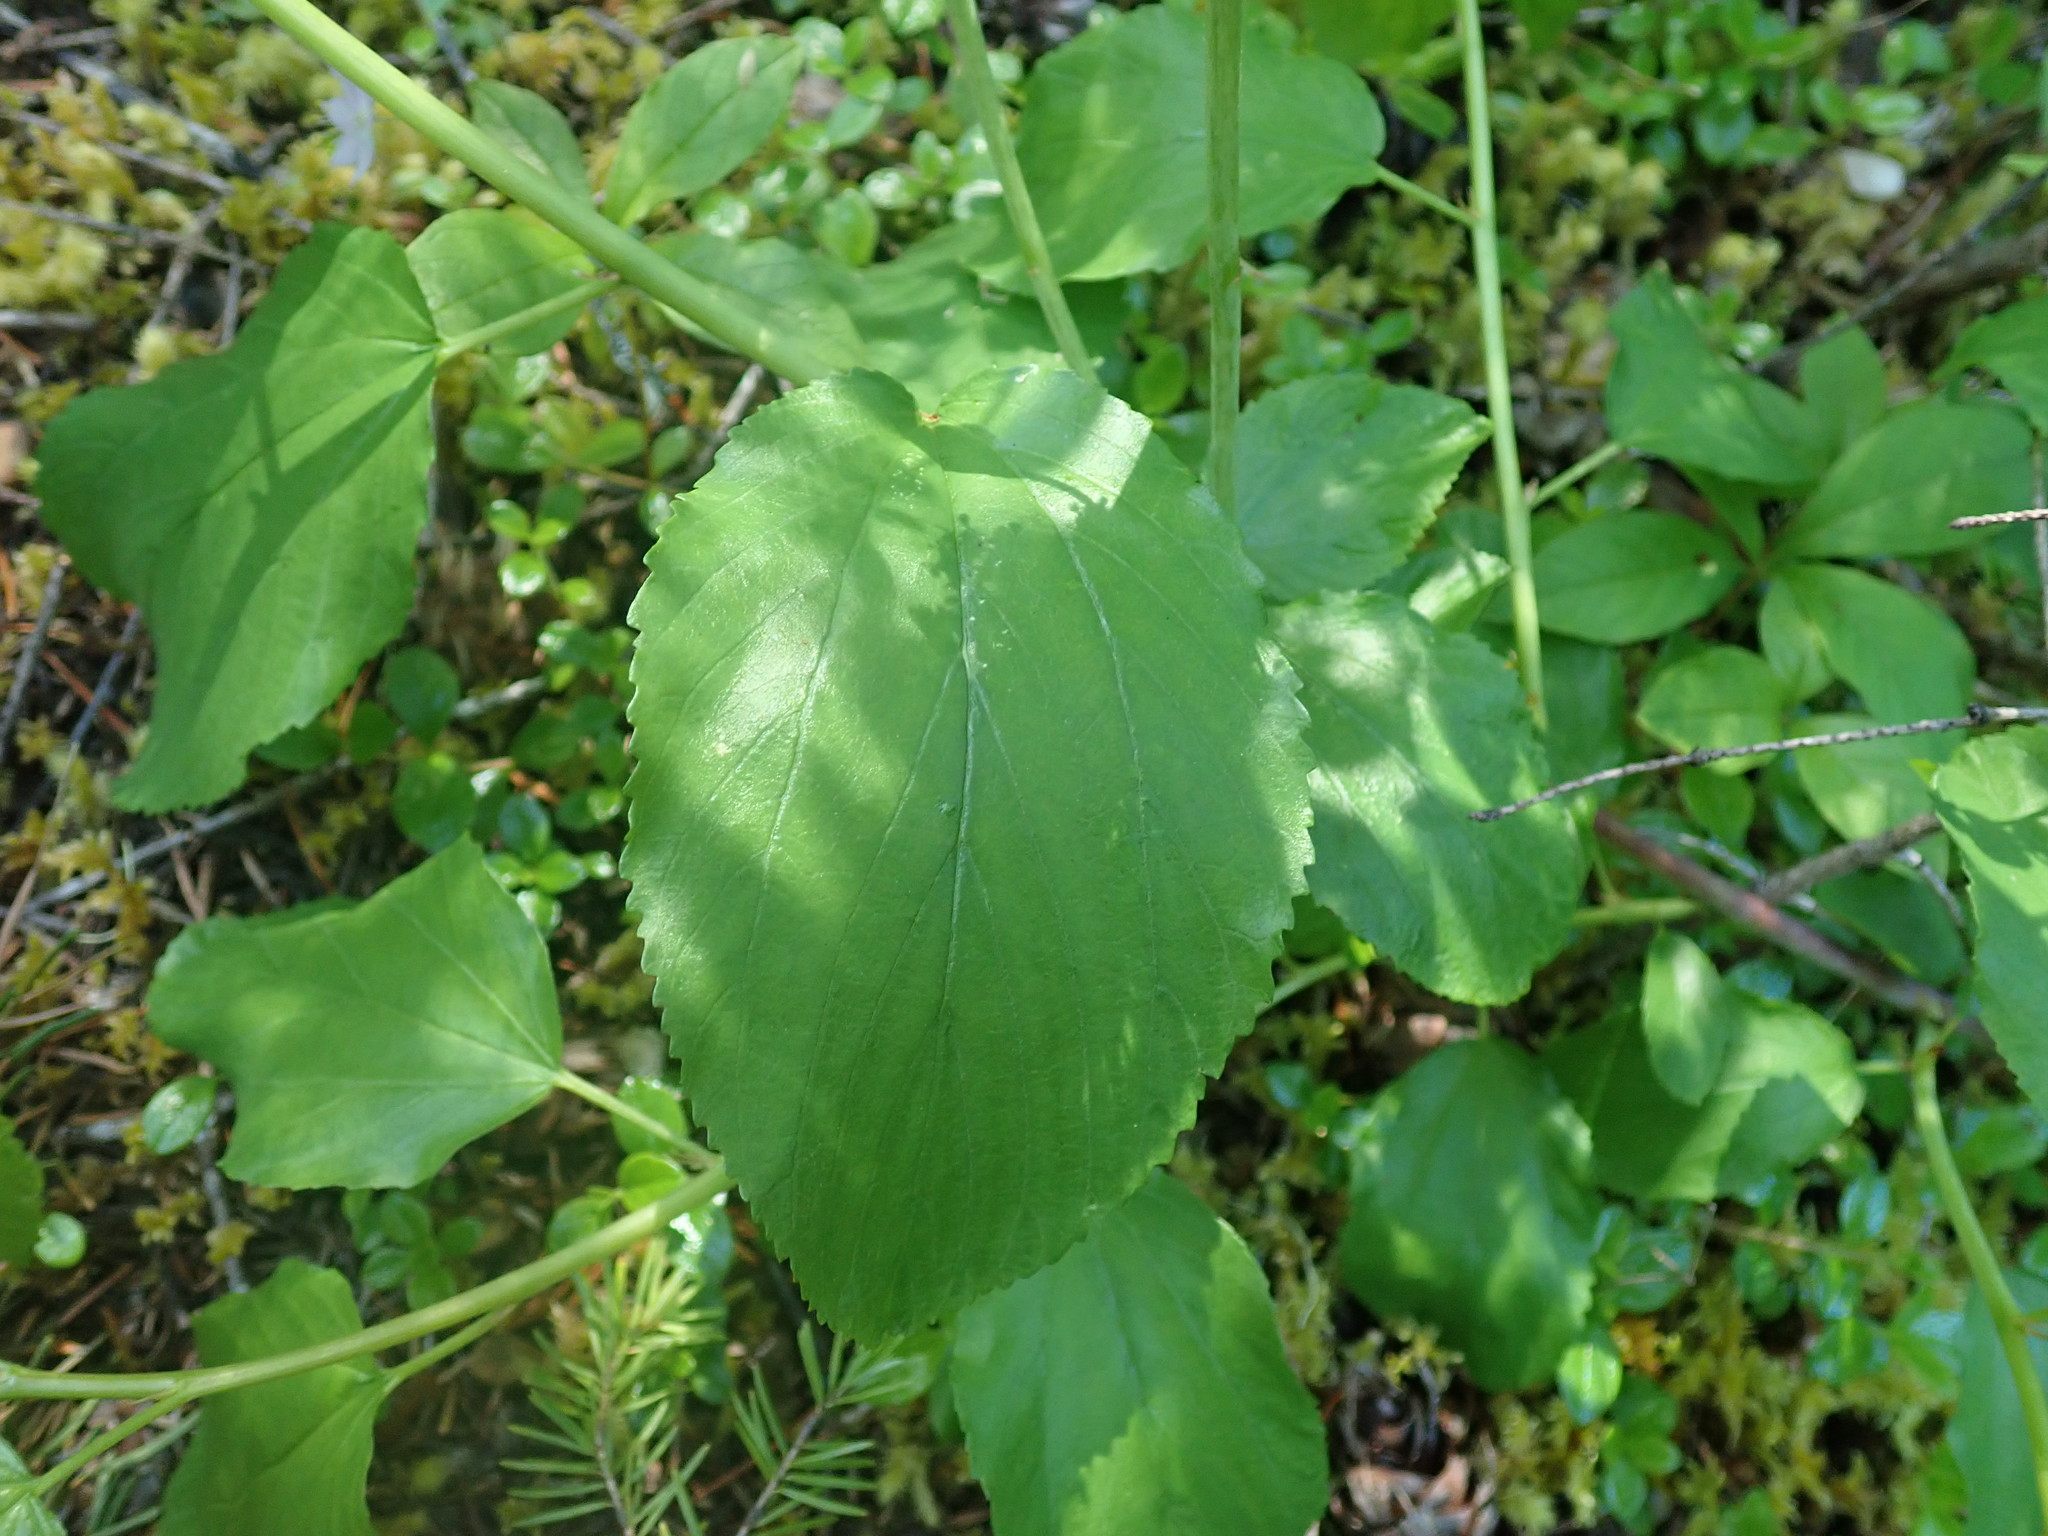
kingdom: Plantae
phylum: Tracheophyta
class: Magnoliopsida
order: Rosales
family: Rhamnaceae
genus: Ceanothus
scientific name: Ceanothus sanguineus
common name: Teatree
